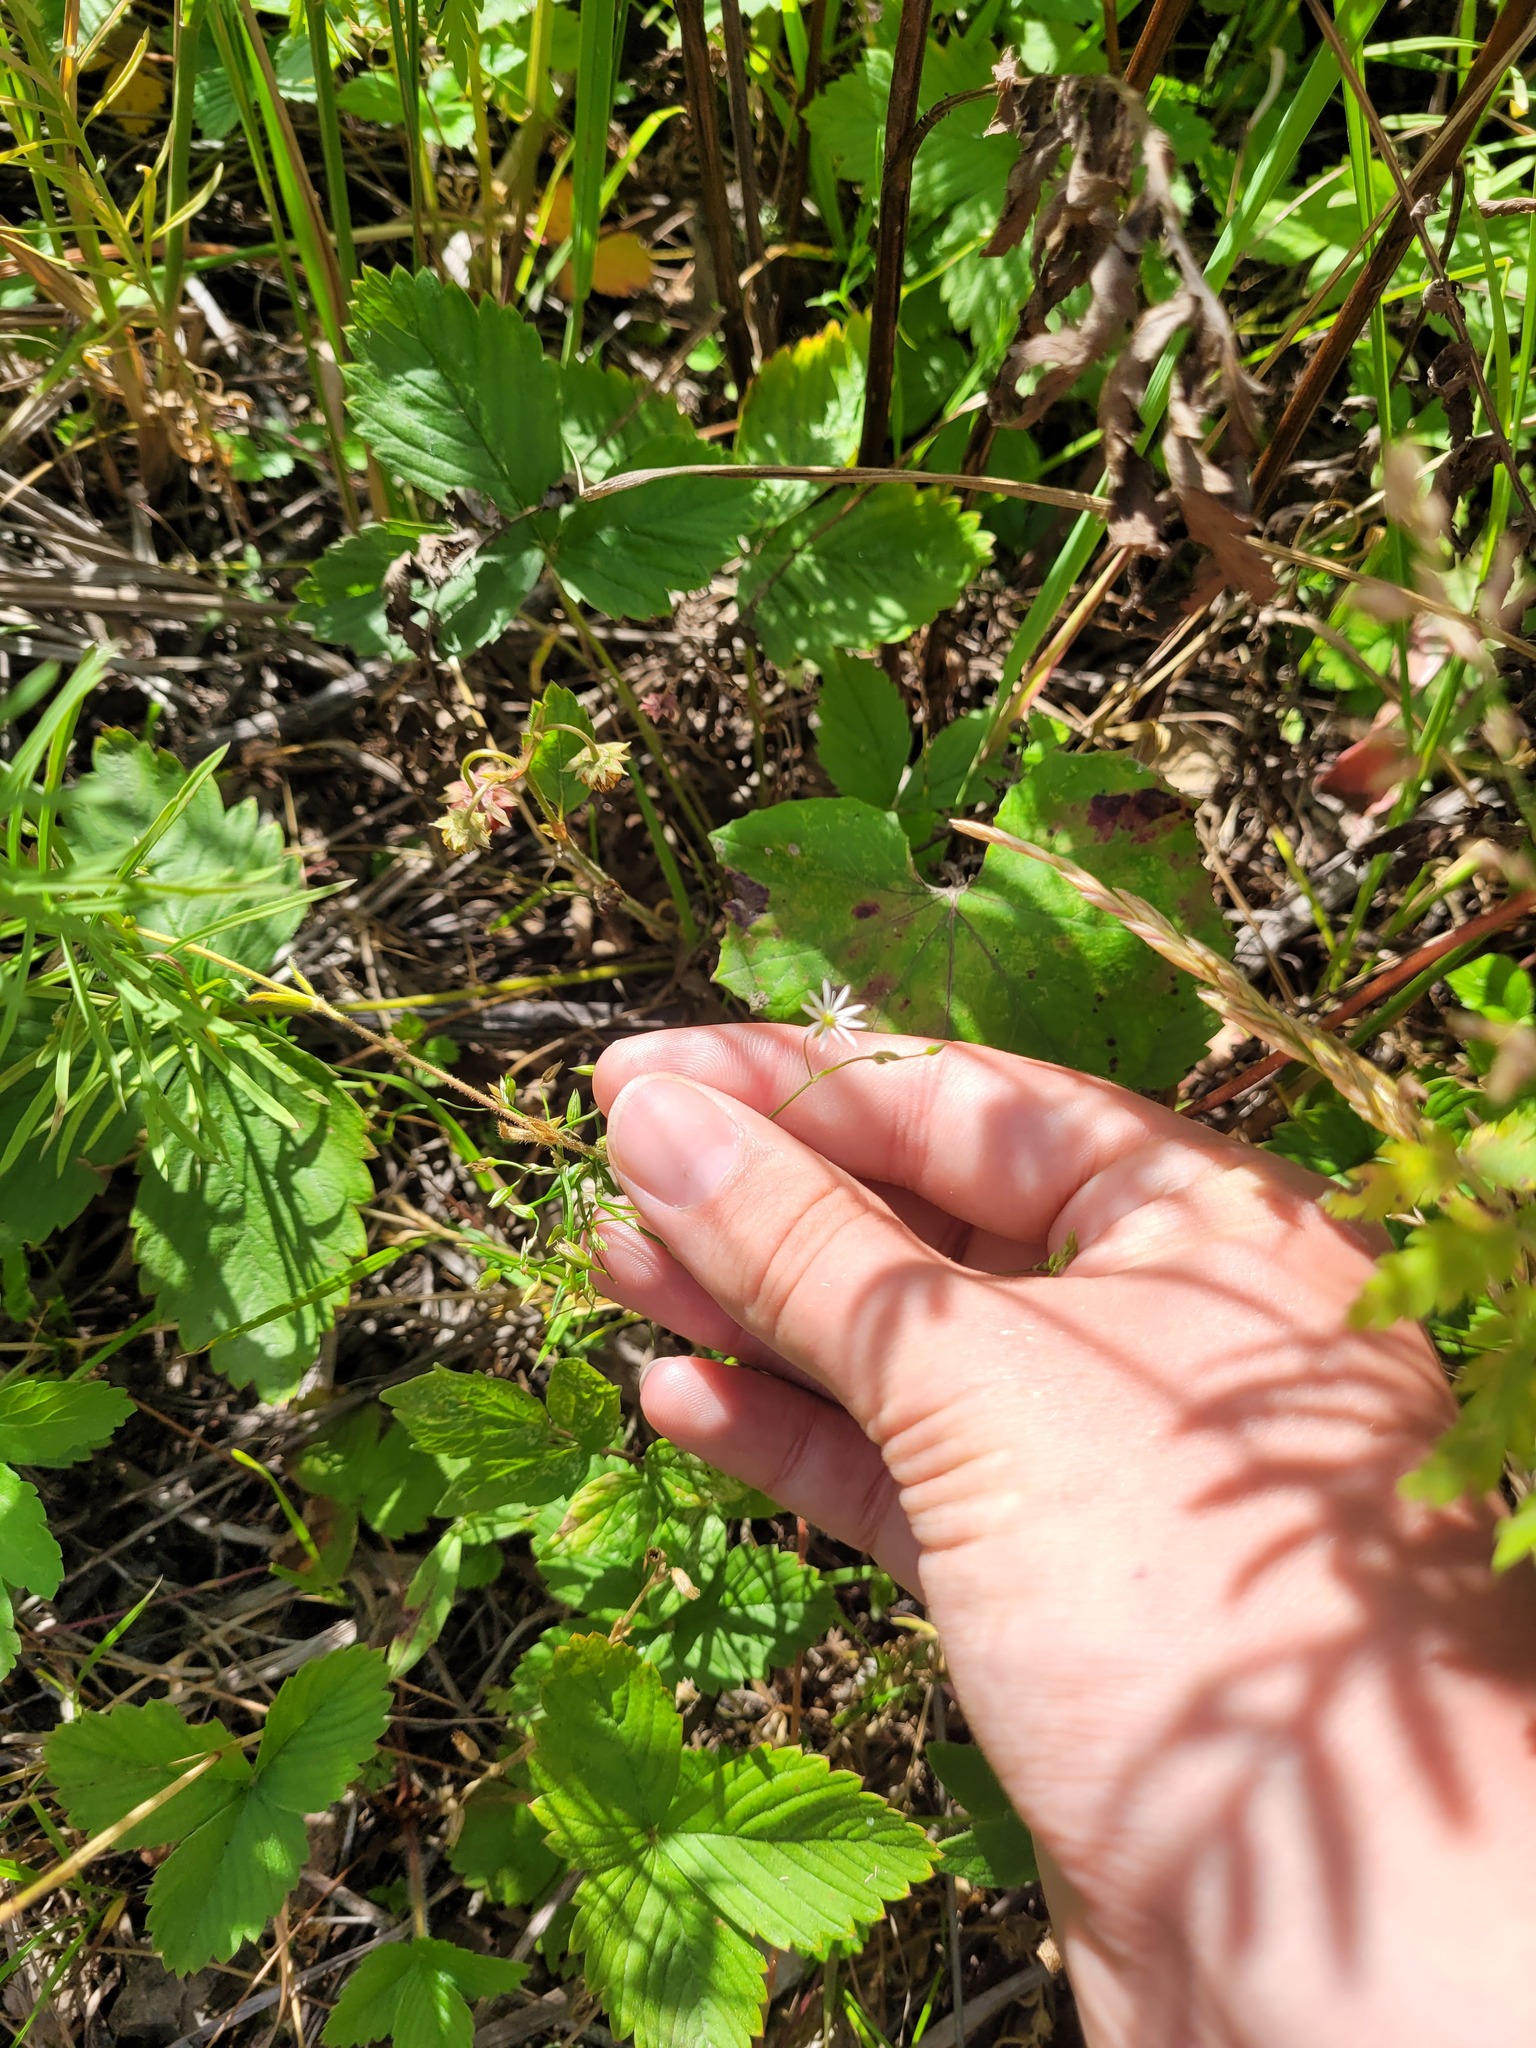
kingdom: Plantae
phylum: Tracheophyta
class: Magnoliopsida
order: Caryophyllales
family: Caryophyllaceae
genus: Stellaria
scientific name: Stellaria graminea
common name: Grass-like starwort
